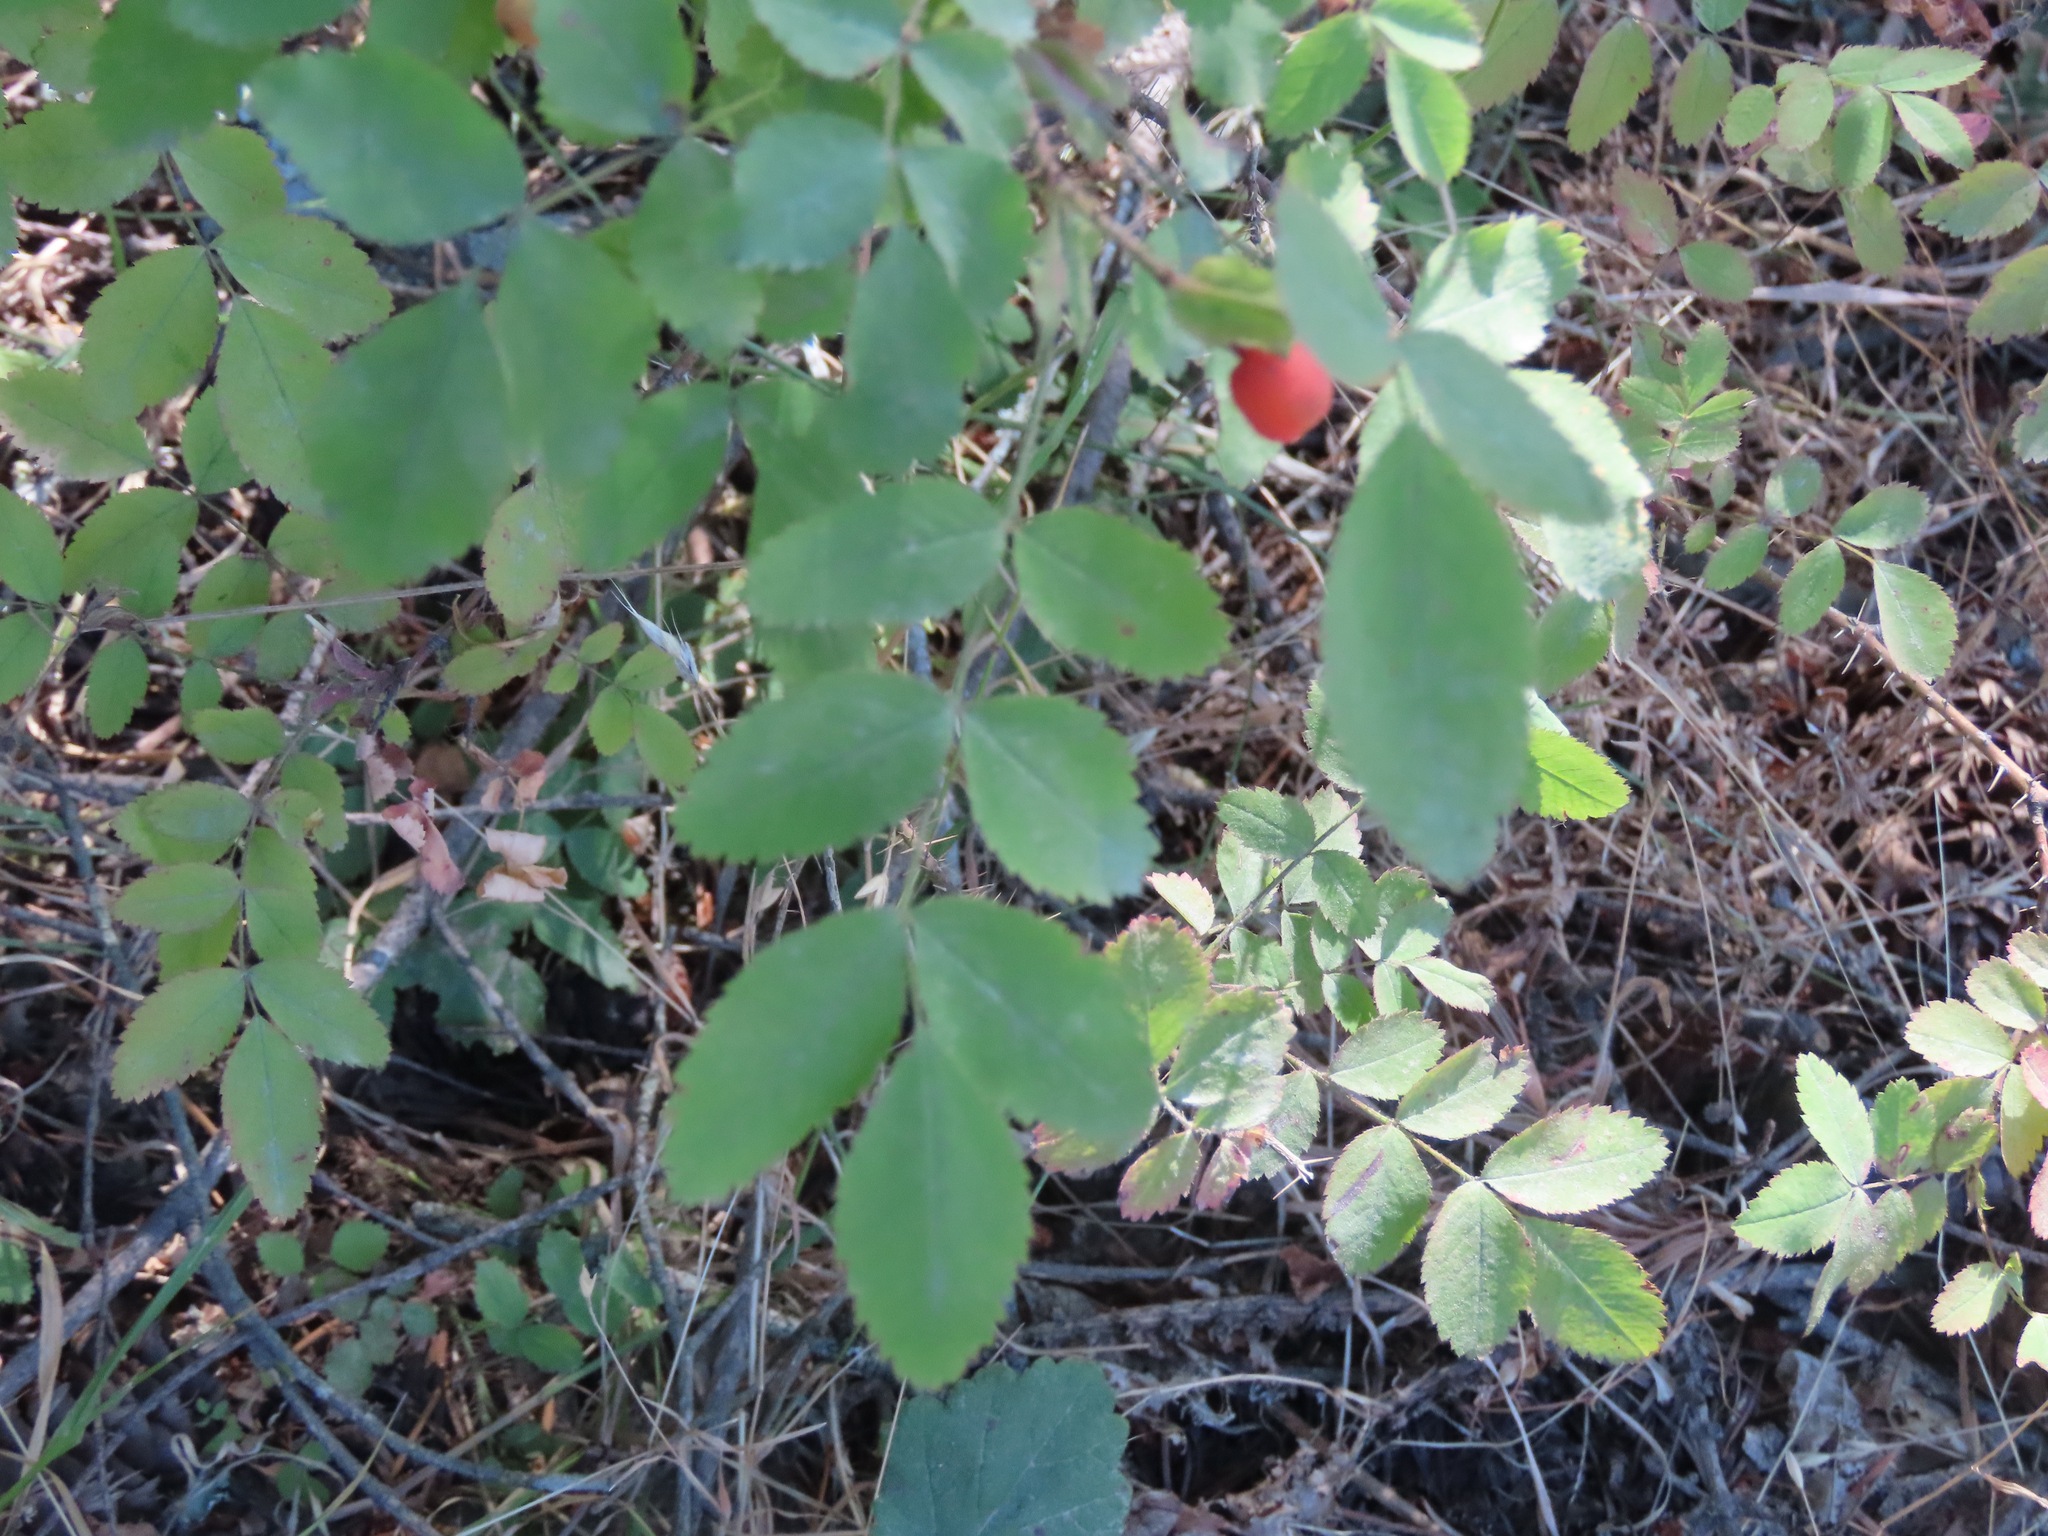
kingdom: Plantae
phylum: Tracheophyta
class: Magnoliopsida
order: Rosales
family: Rosaceae
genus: Rosa
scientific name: Rosa gymnocarpa
